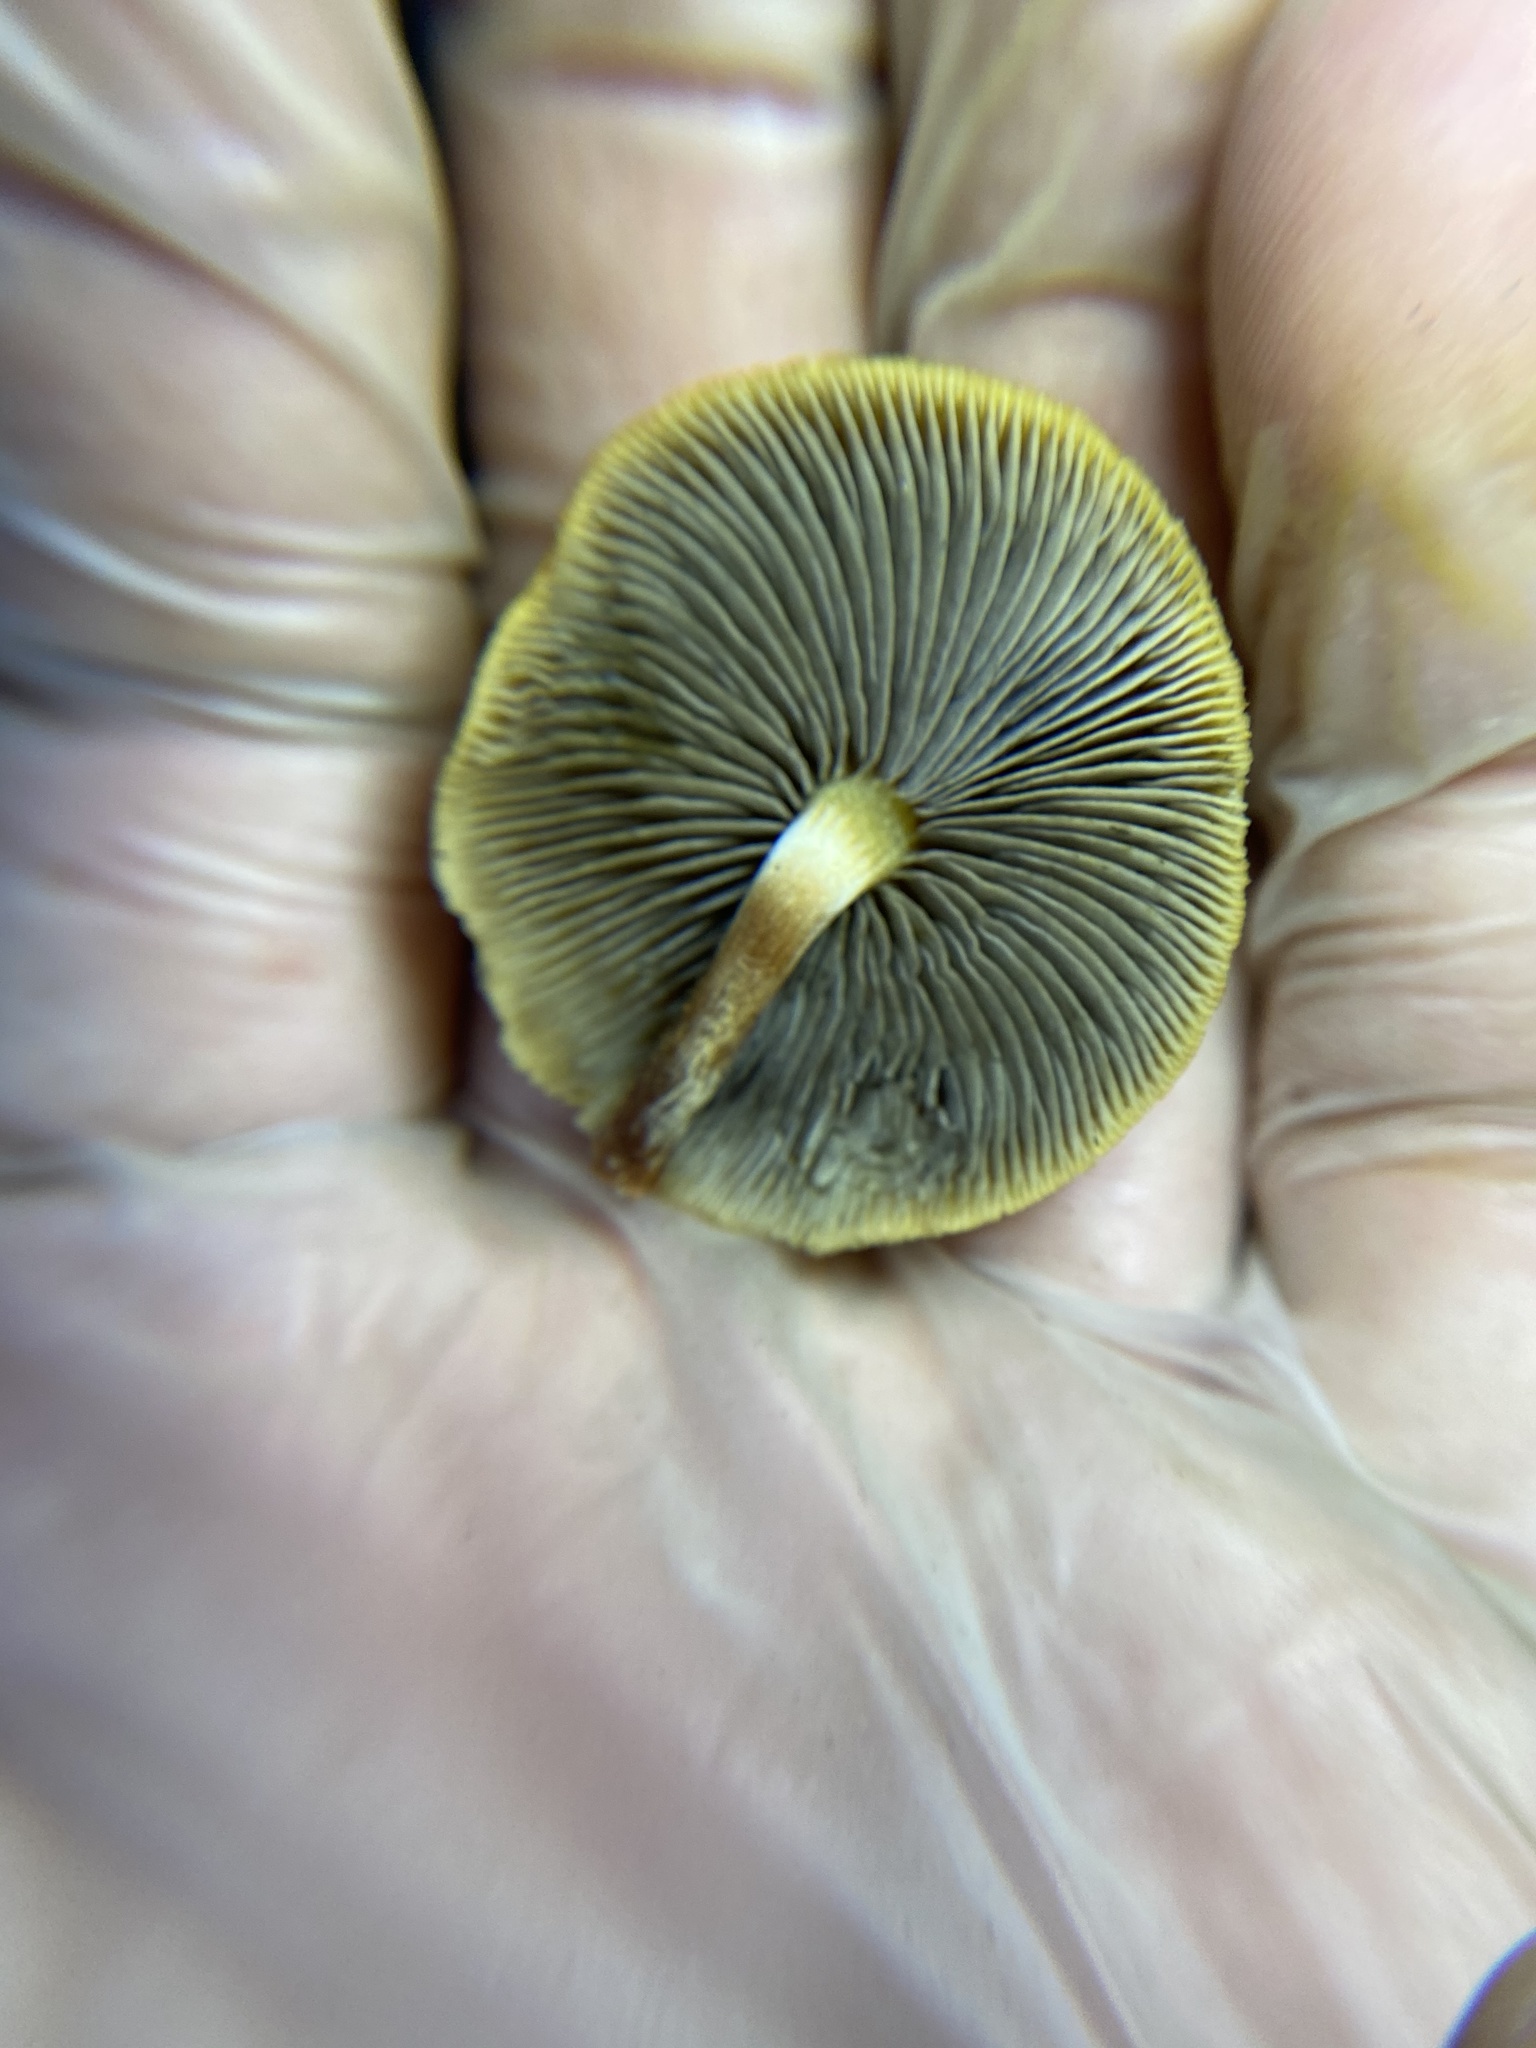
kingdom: Fungi
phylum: Basidiomycota
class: Agaricomycetes
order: Agaricales
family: Strophariaceae
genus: Hypholoma
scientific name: Hypholoma fasciculare
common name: Sulphur tuft
